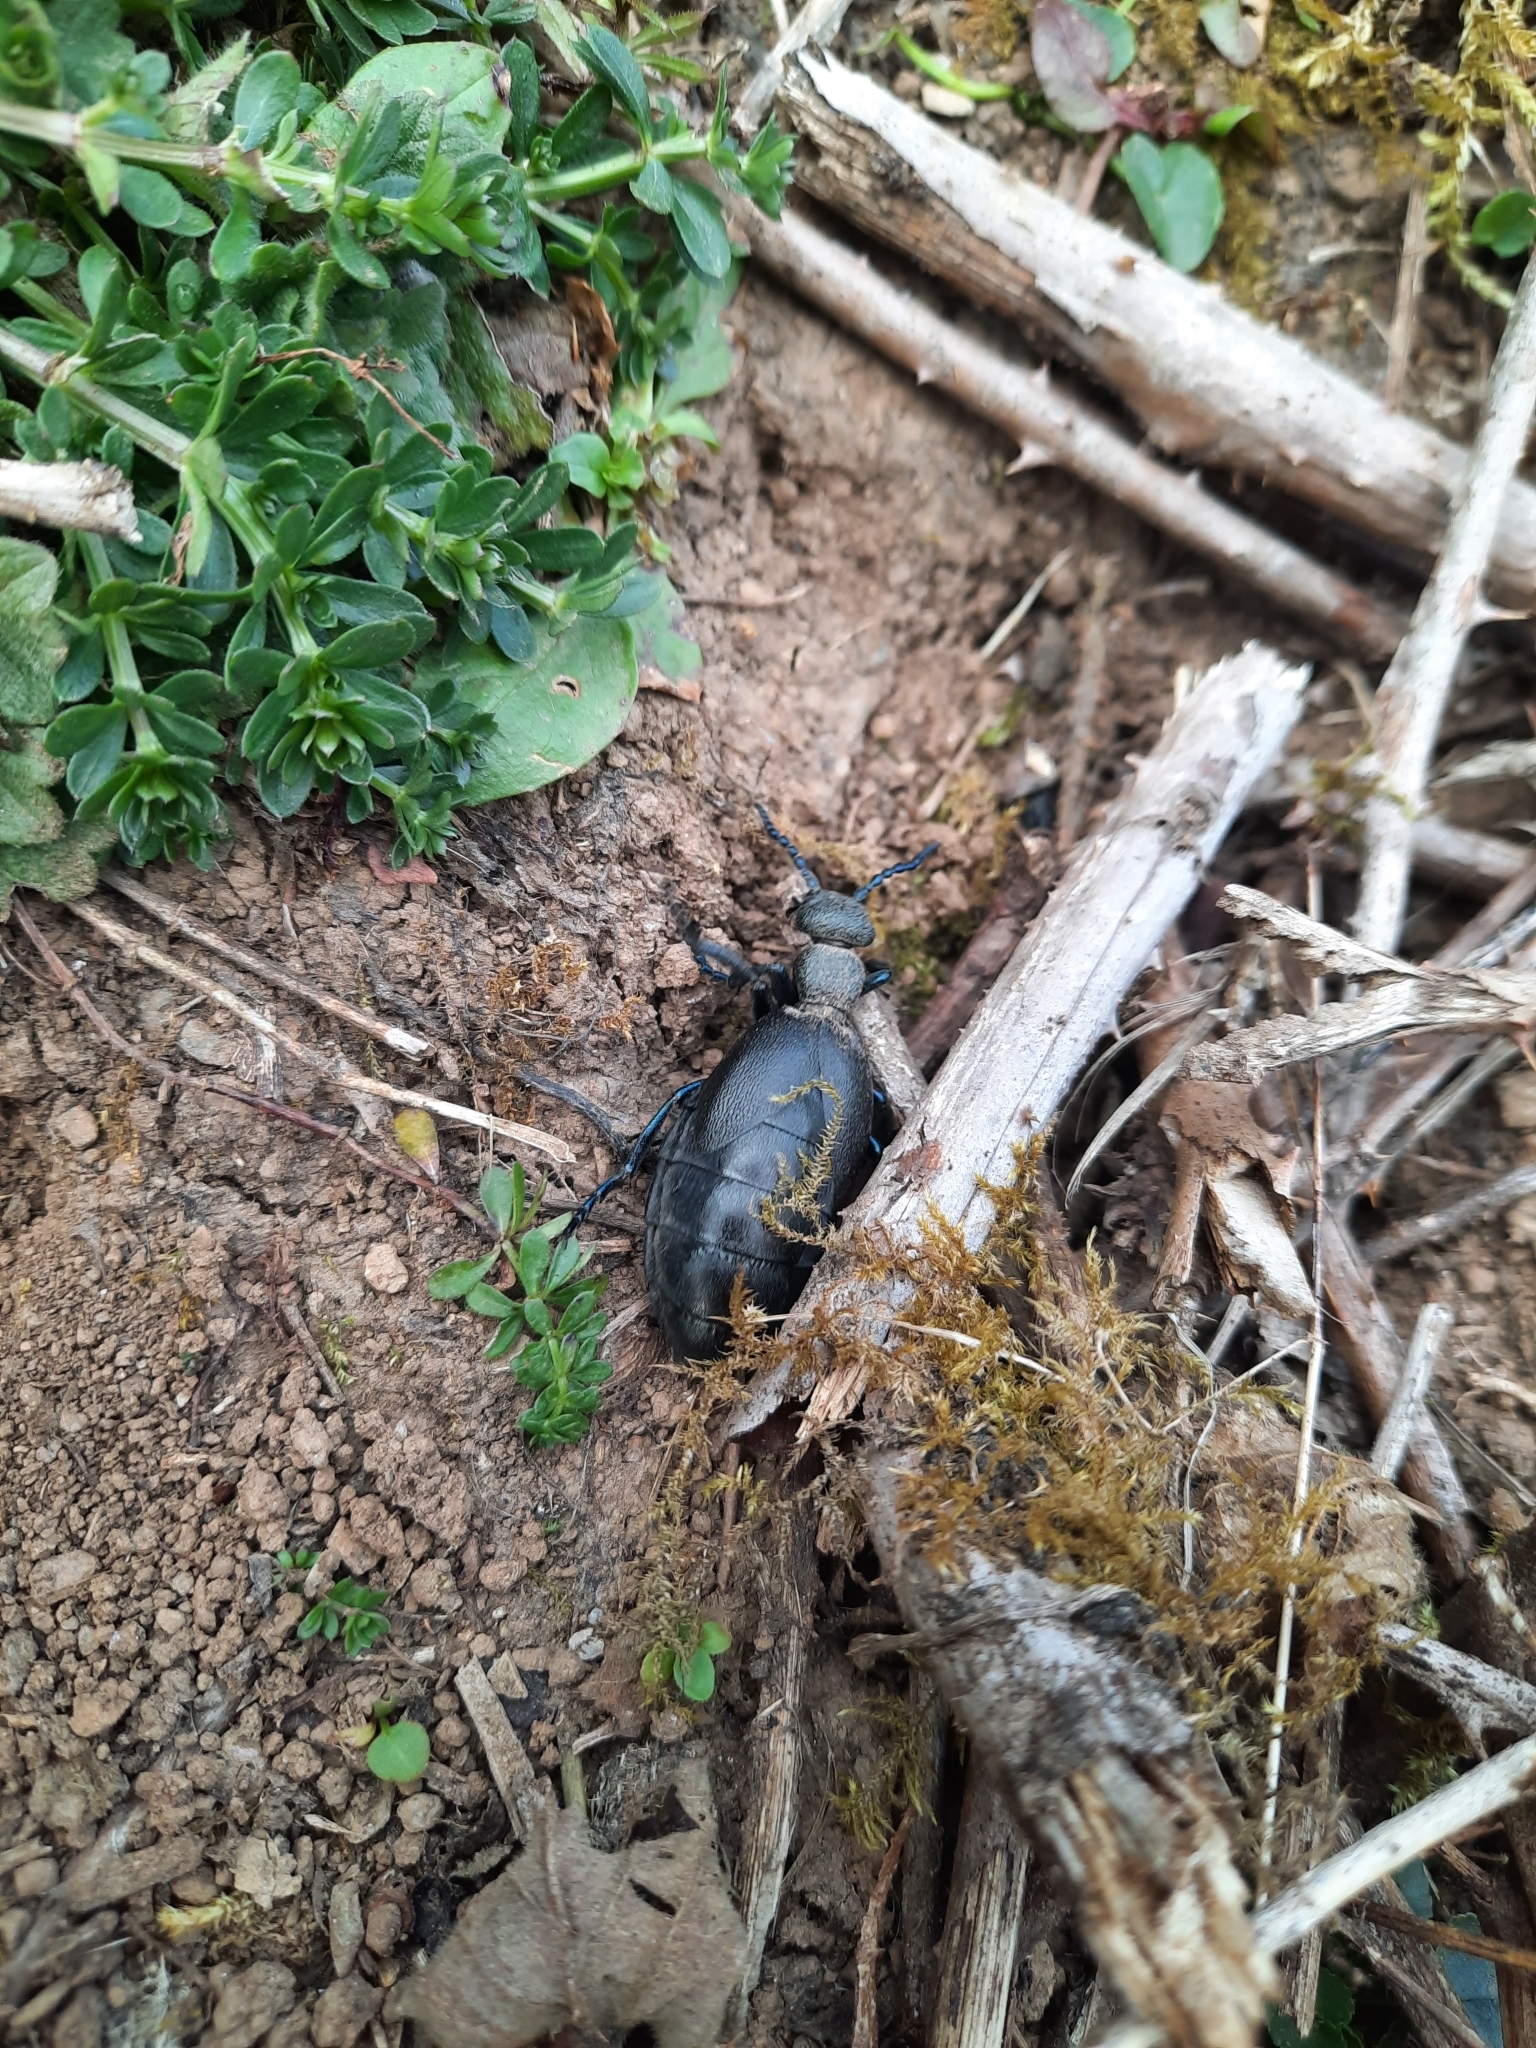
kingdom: Animalia
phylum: Arthropoda
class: Insecta
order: Coleoptera
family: Meloidae
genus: Meloe
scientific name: Meloe proscarabaeus
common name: Black oil-beetle
